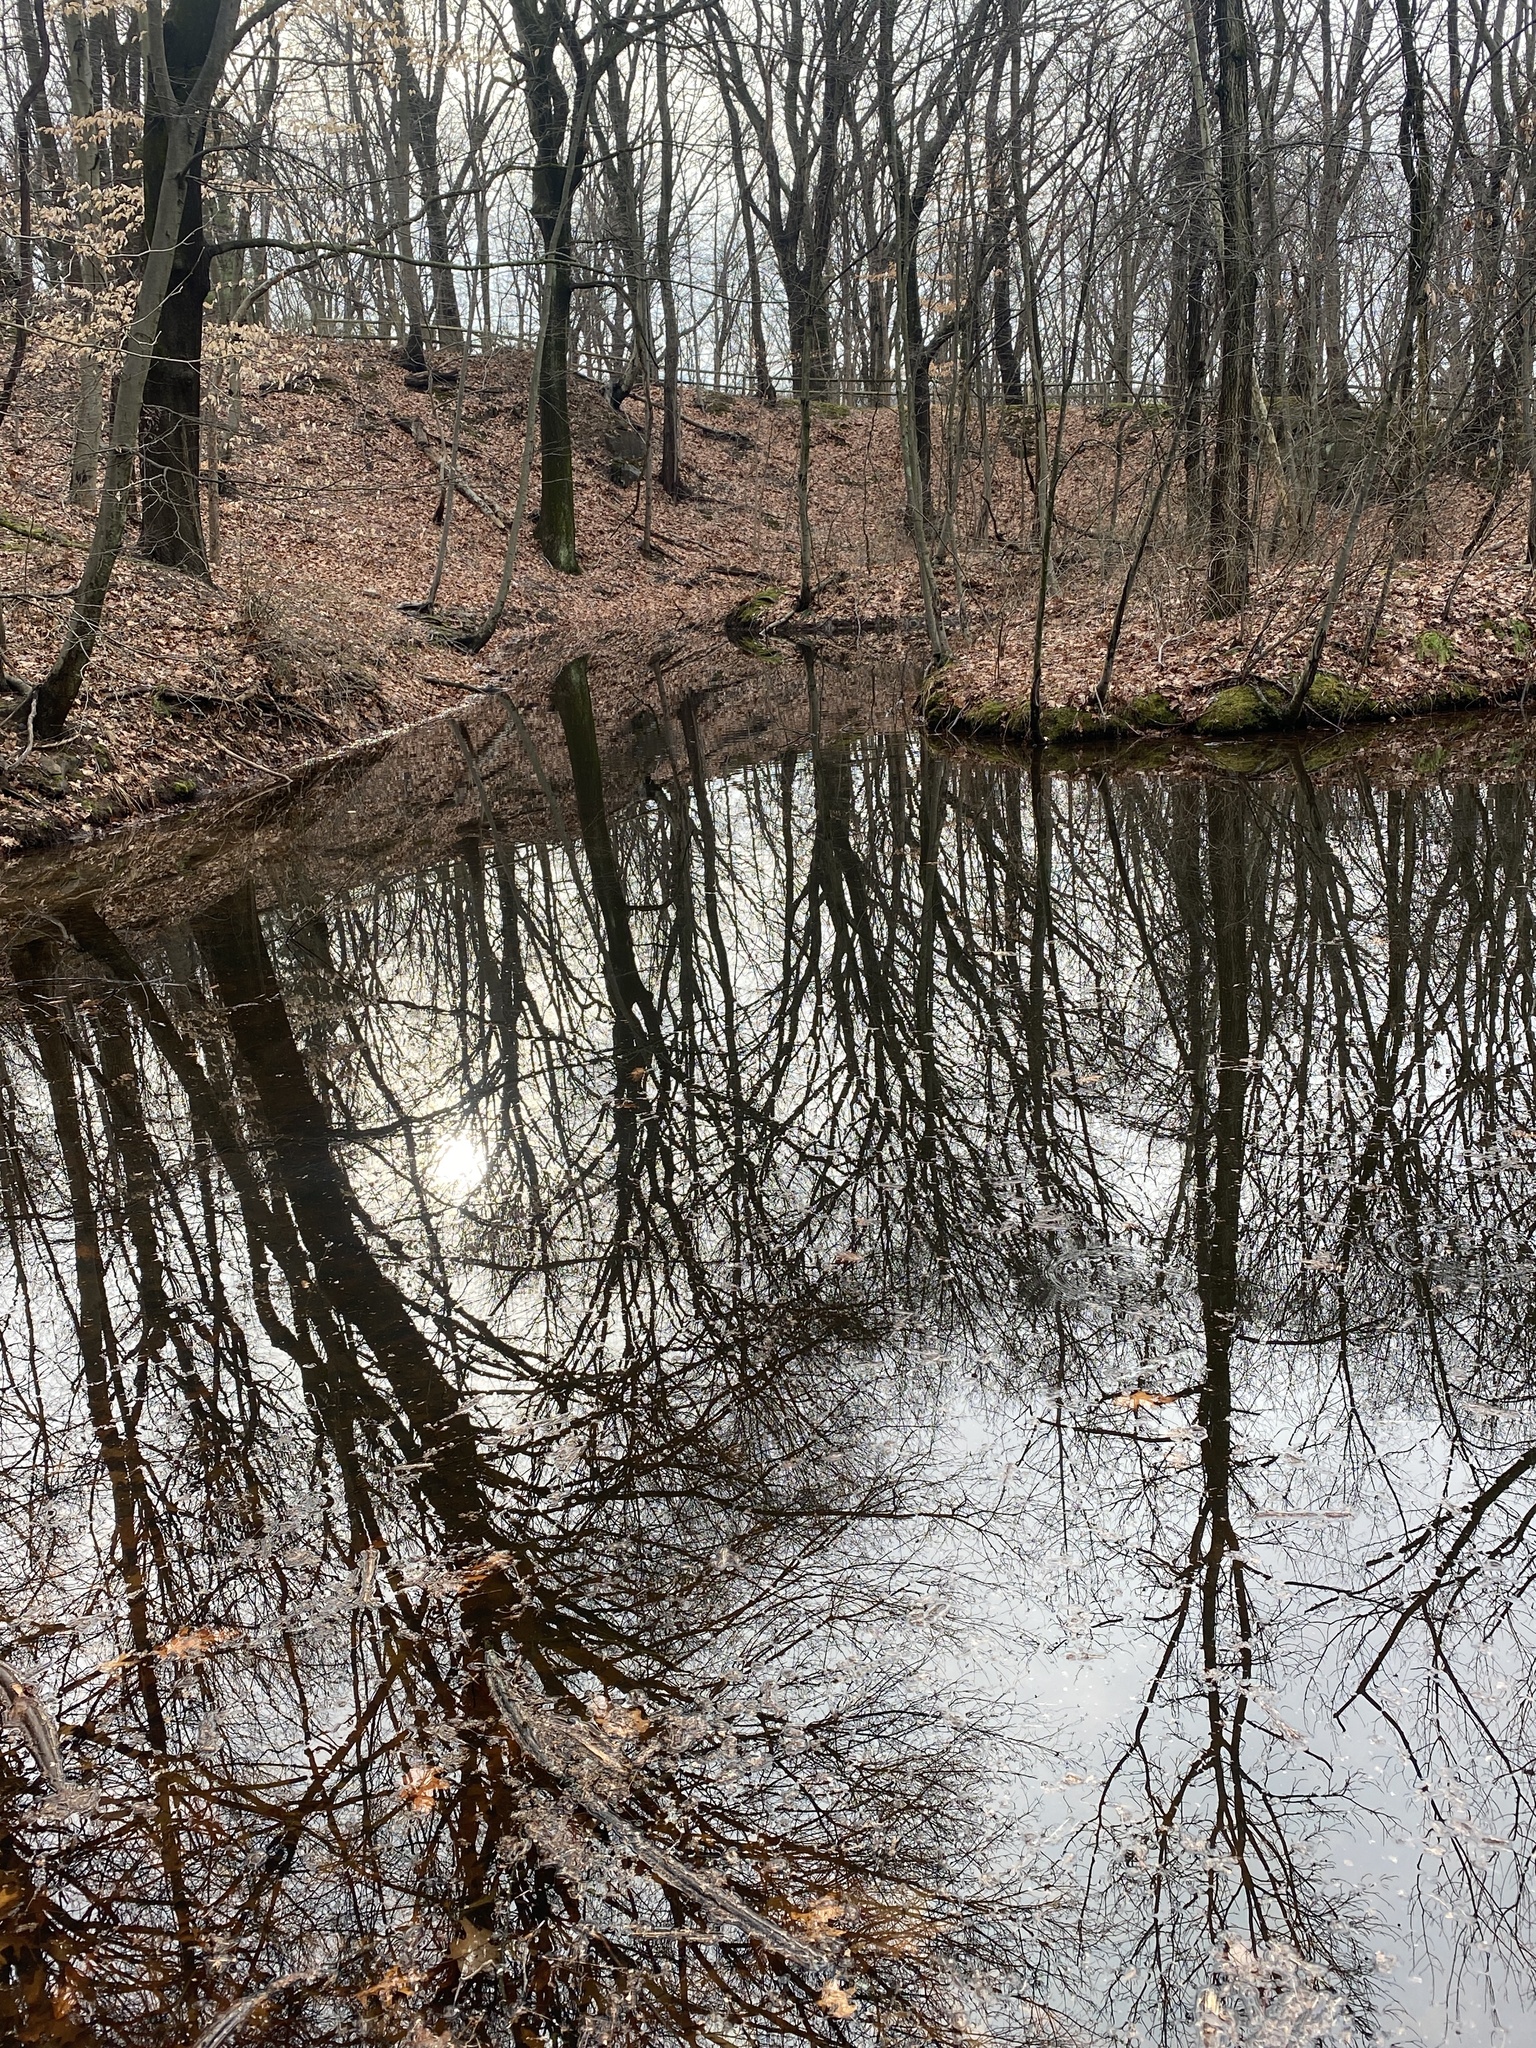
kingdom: Plantae
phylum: Tracheophyta
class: Polypodiopsida
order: Polypodiales
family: Onocleaceae
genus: Onoclea
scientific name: Onoclea sensibilis
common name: Sensitive fern
